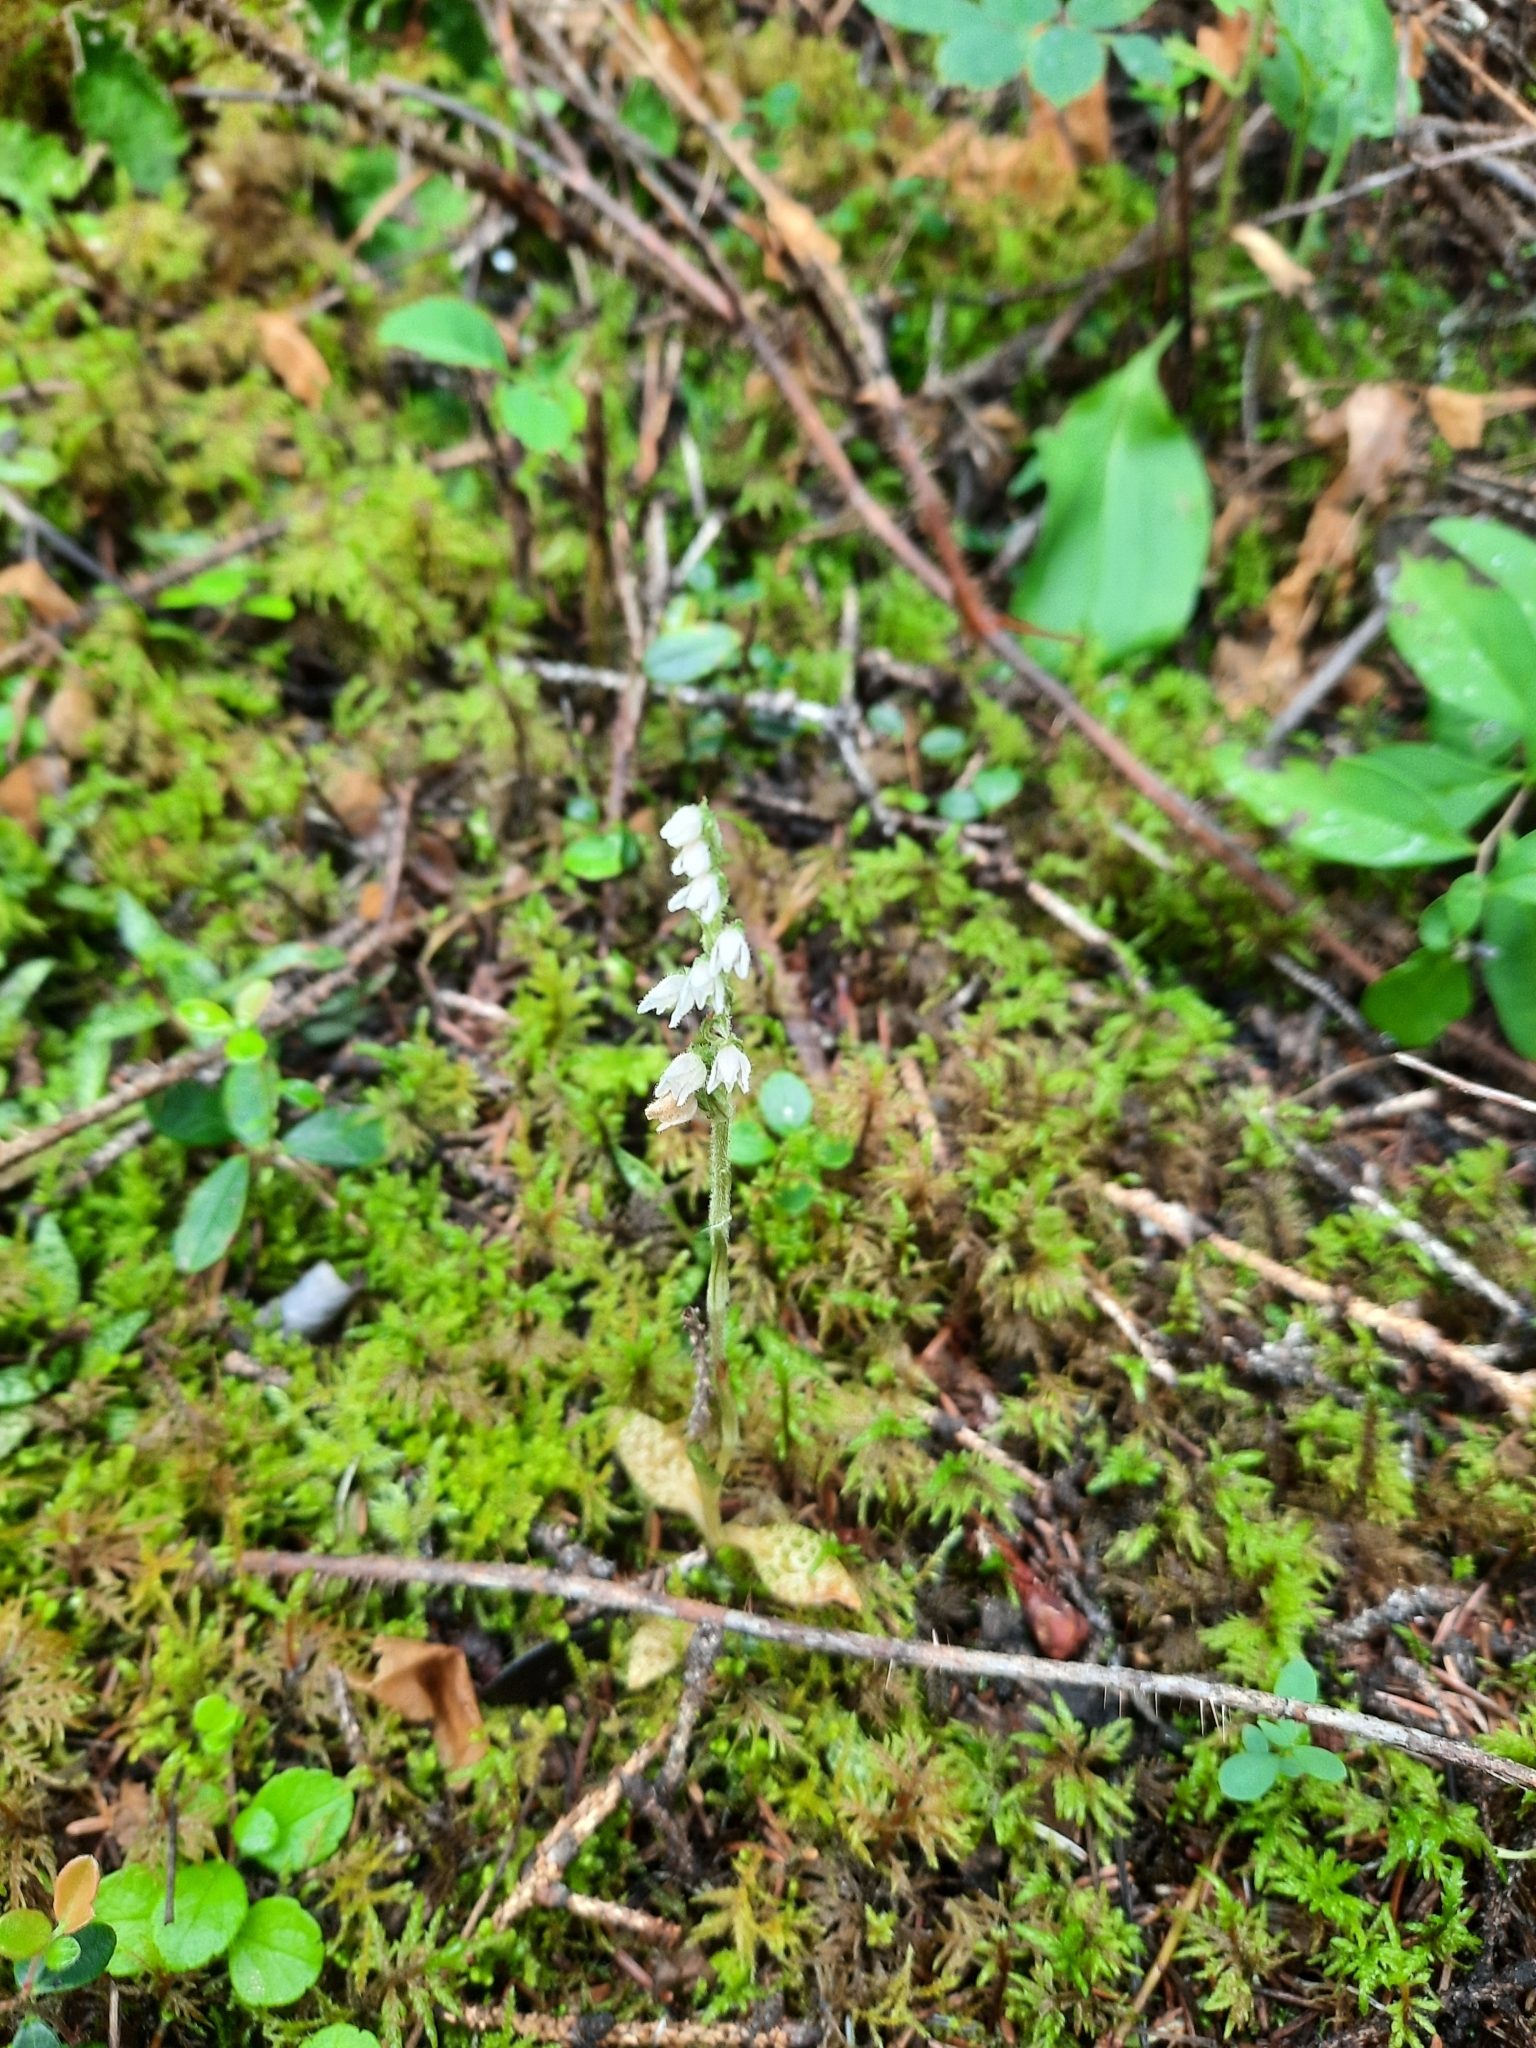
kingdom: Plantae
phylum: Tracheophyta
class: Liliopsida
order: Asparagales
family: Orchidaceae
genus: Goodyera
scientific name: Goodyera repens
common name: Creeping lady's-tresses
